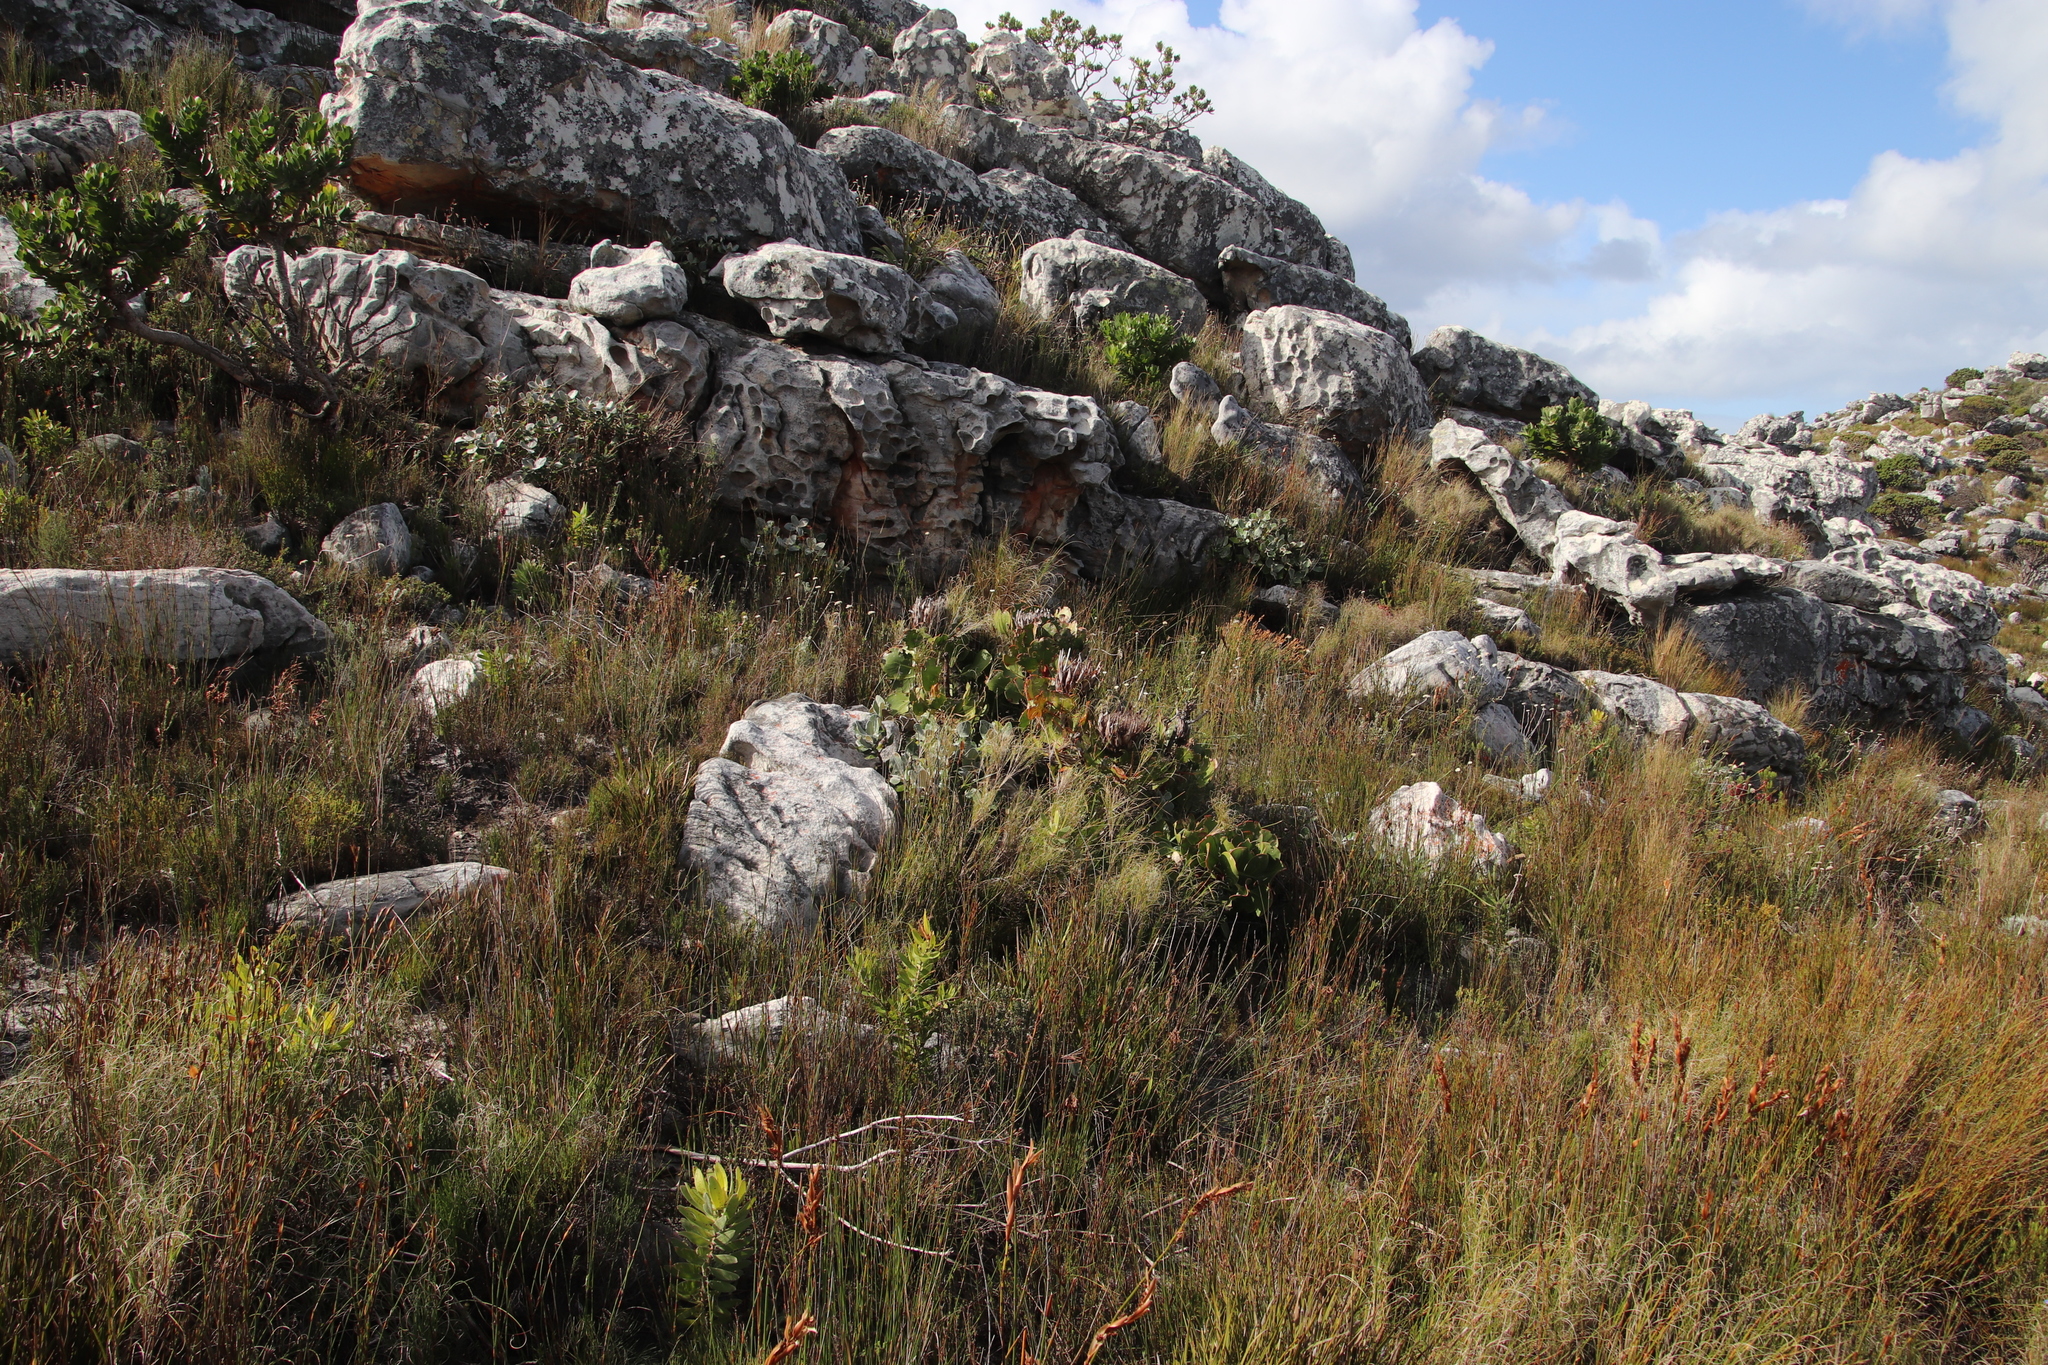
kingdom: Plantae
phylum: Tracheophyta
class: Magnoliopsida
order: Proteales
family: Proteaceae
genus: Protea
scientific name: Protea cynaroides
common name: King protea
